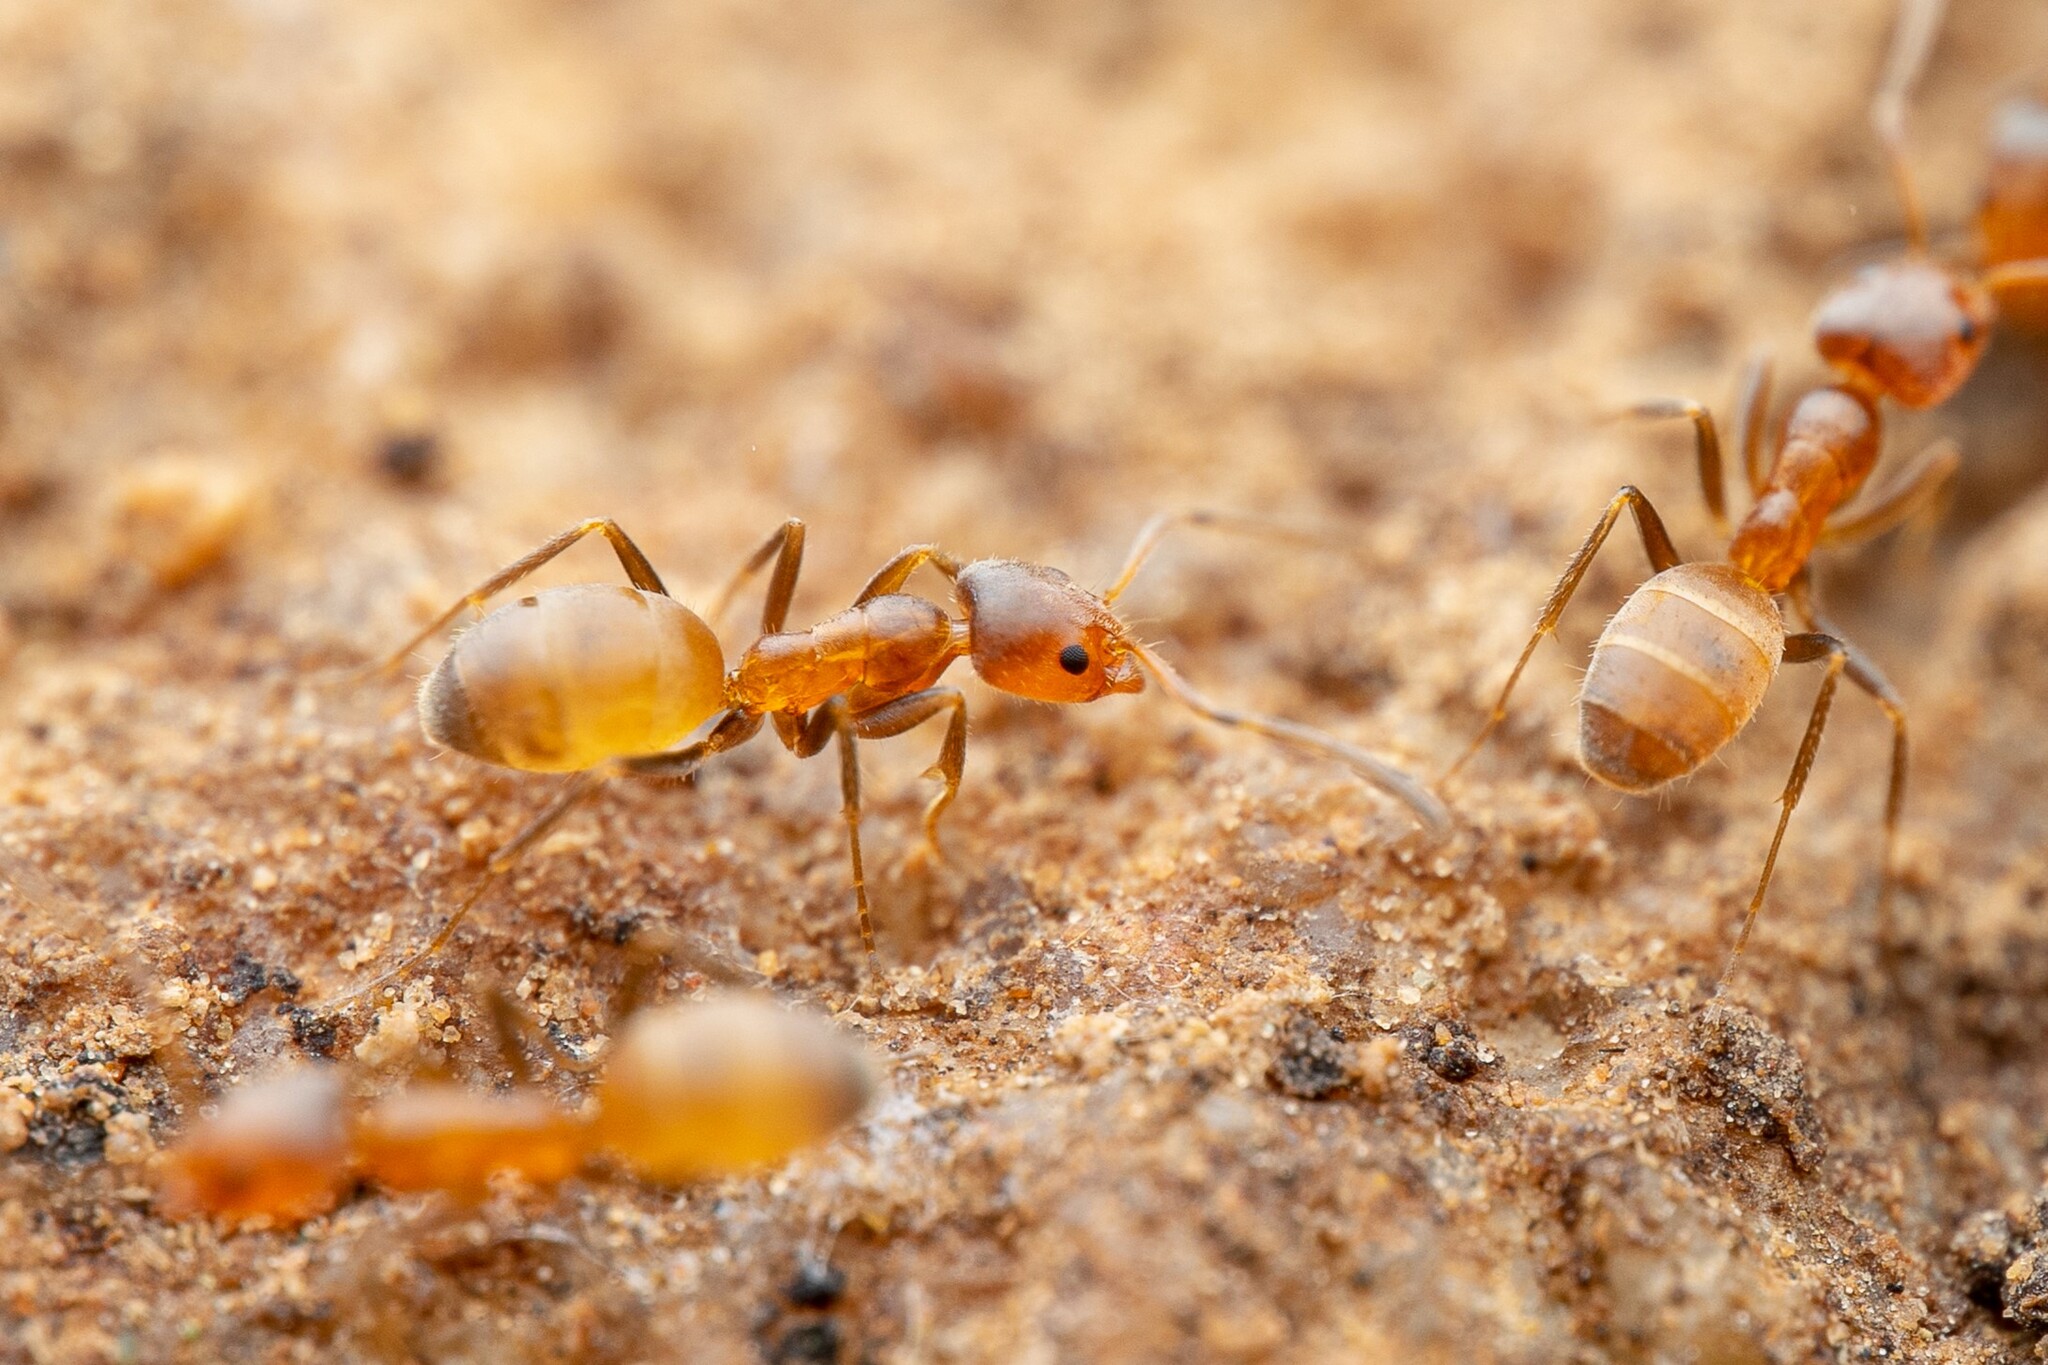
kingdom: Animalia
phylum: Arthropoda
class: Insecta
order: Hymenoptera
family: Formicidae
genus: Forelius
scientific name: Forelius mccooki
